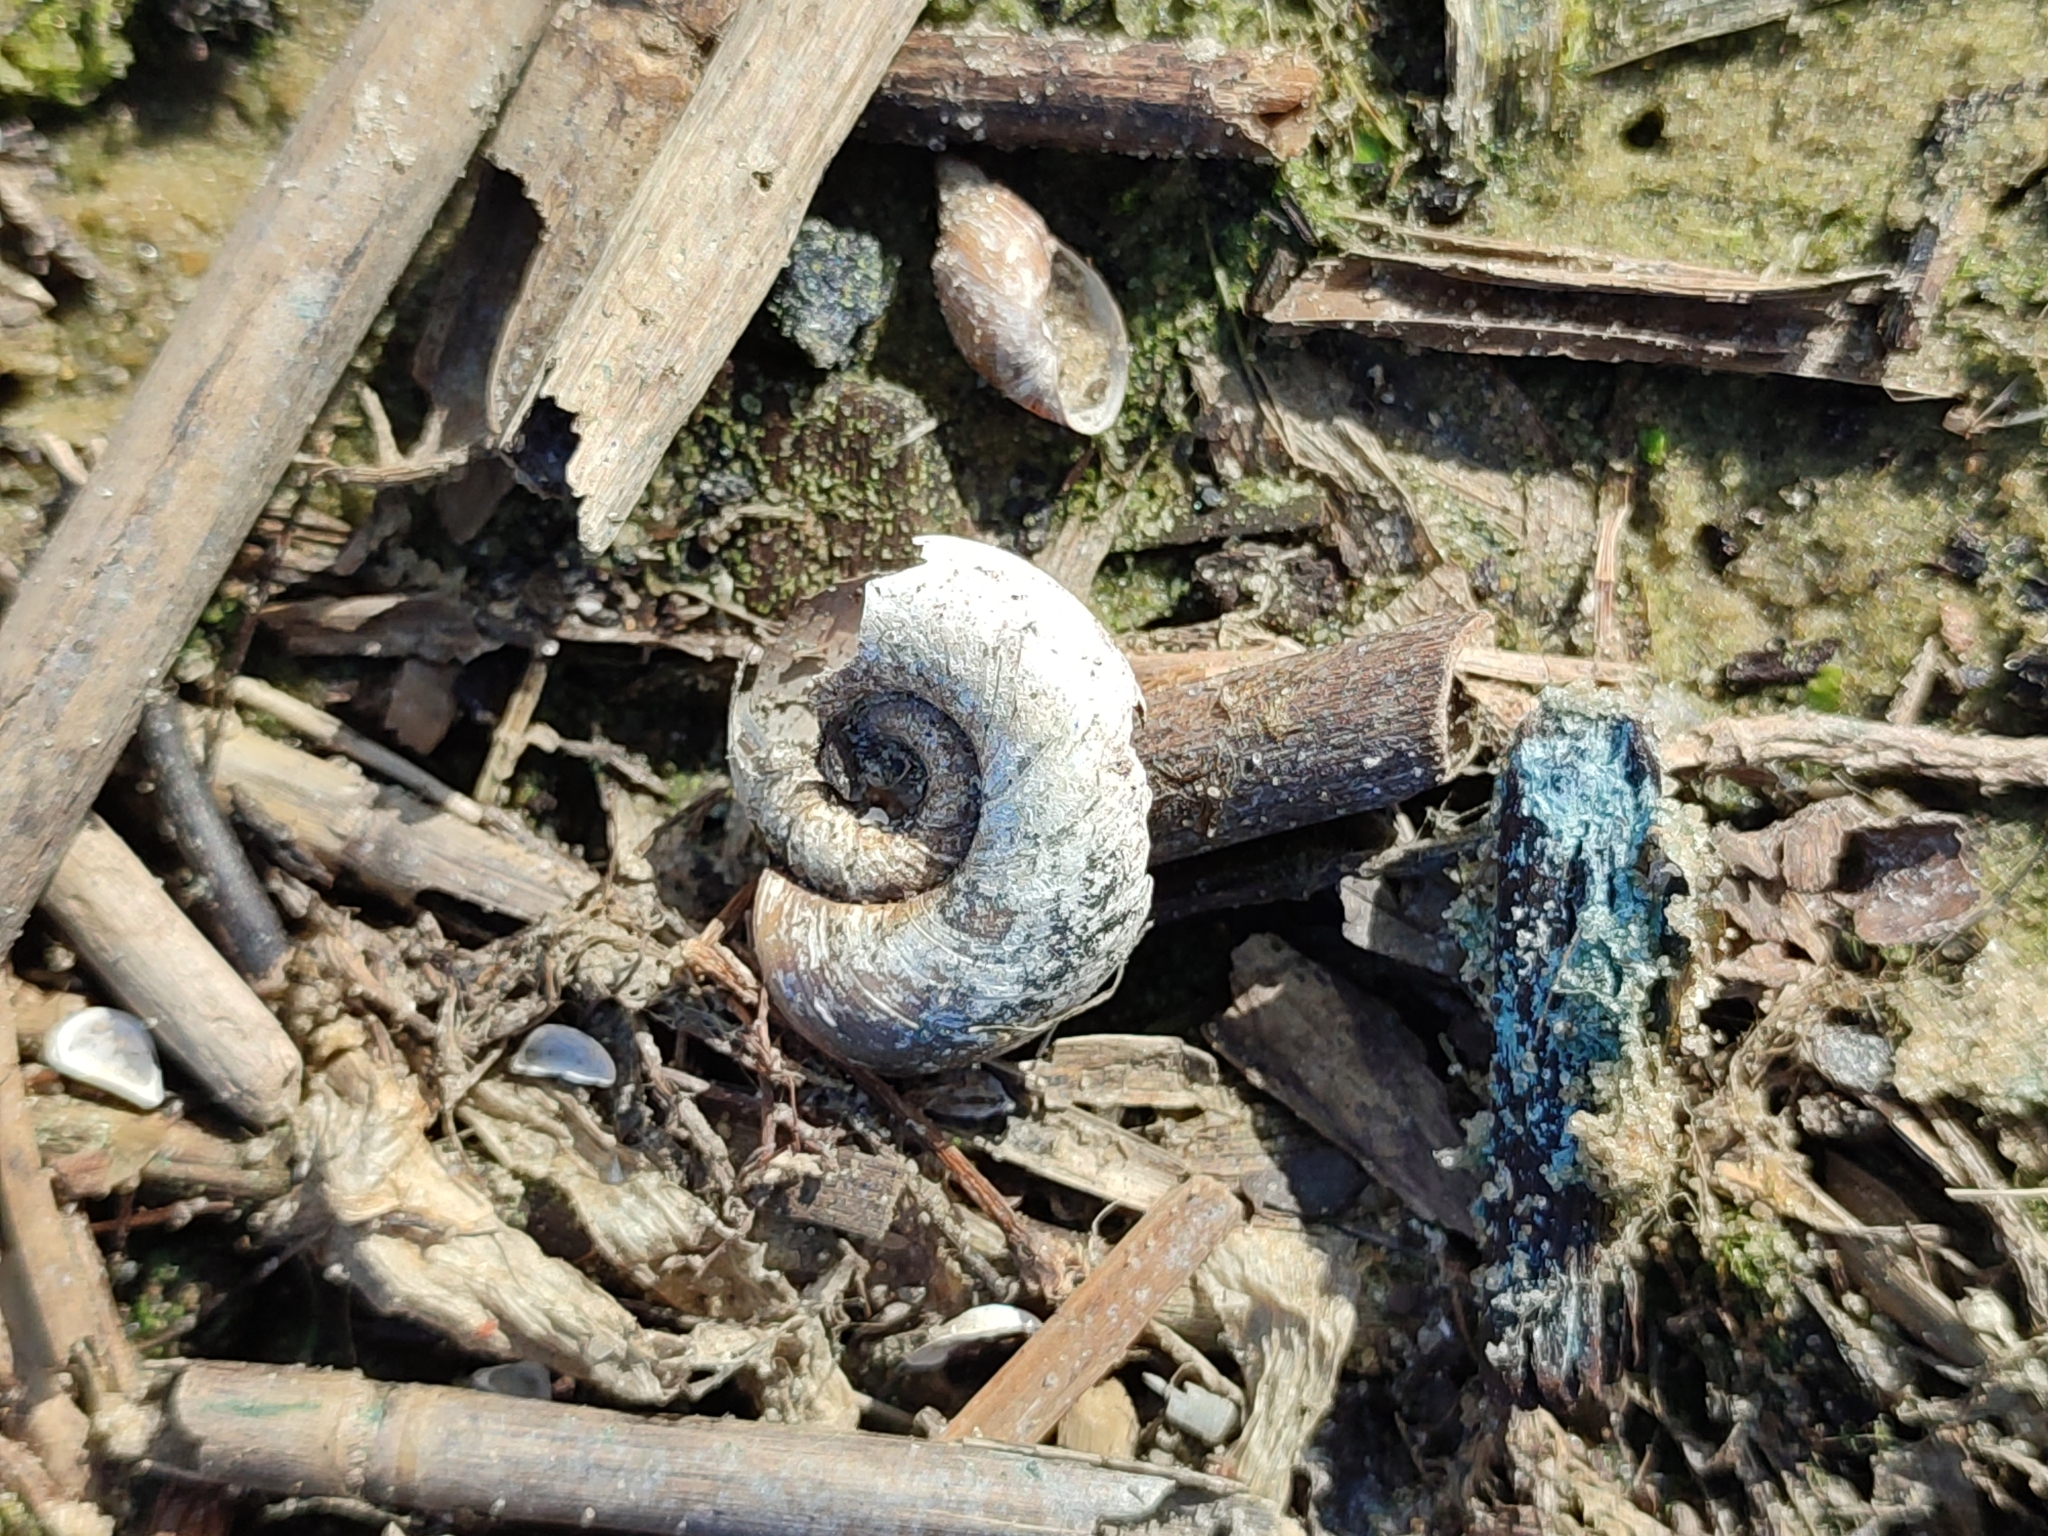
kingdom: Animalia
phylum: Mollusca
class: Gastropoda
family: Planorbidae
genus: Planorbarius
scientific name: Planorbarius corneus
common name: Great ramshorn
